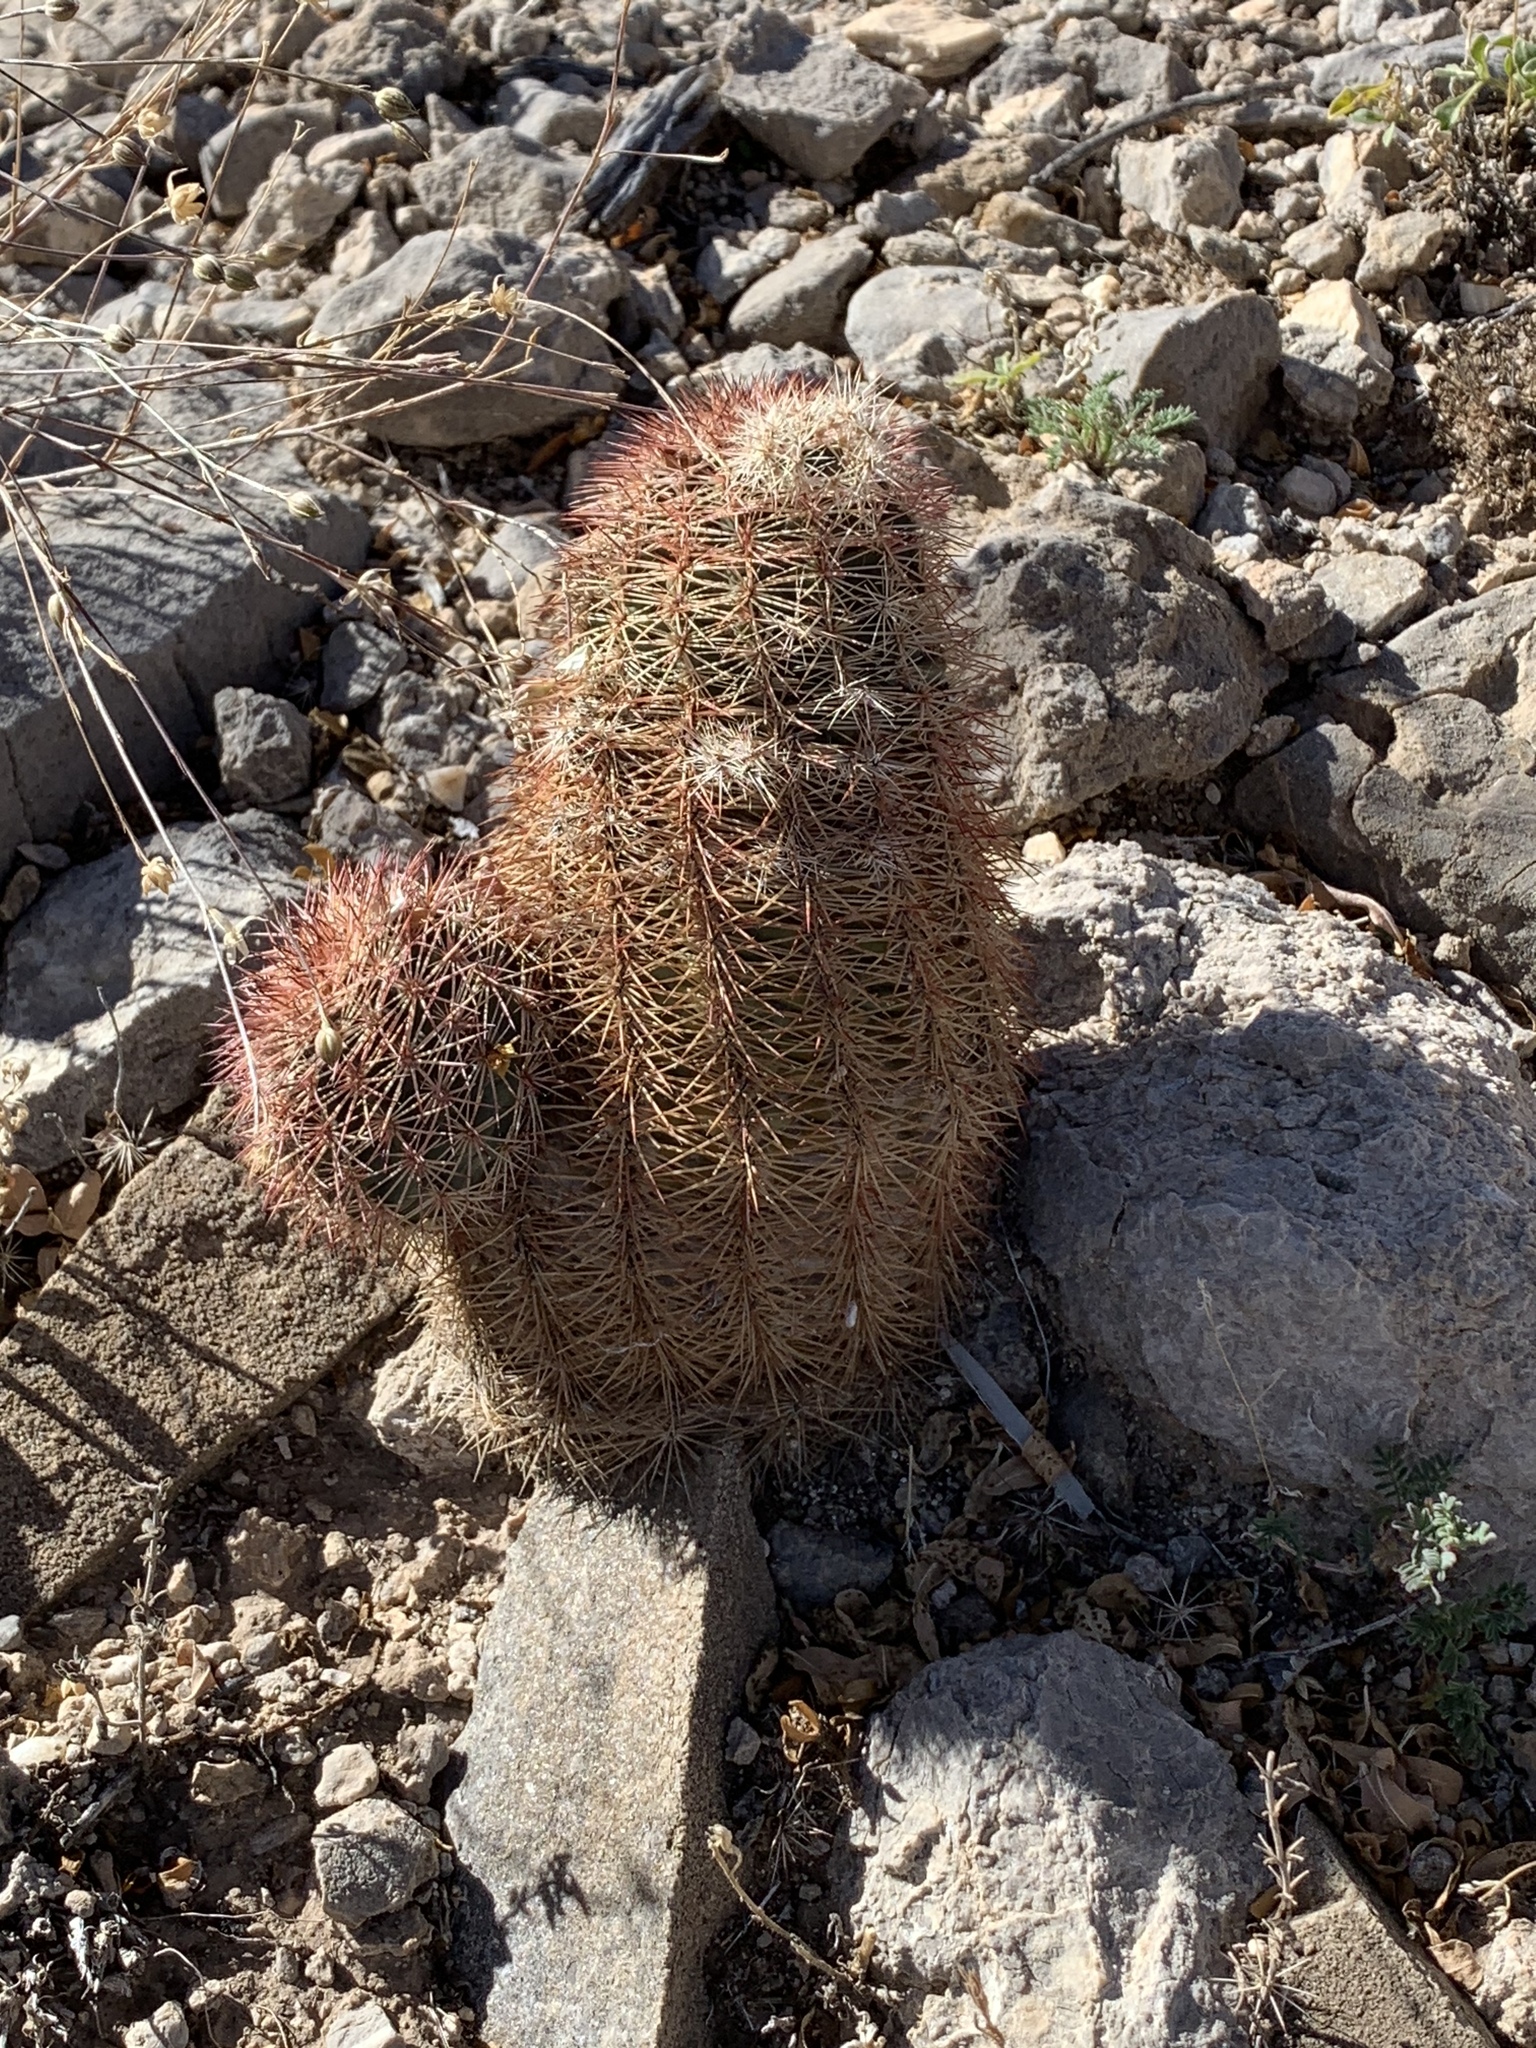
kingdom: Plantae
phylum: Tracheophyta
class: Magnoliopsida
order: Caryophyllales
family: Cactaceae
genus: Echinocereus
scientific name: Echinocereus dasyacanthus
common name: Spiny hedgehog cactus
